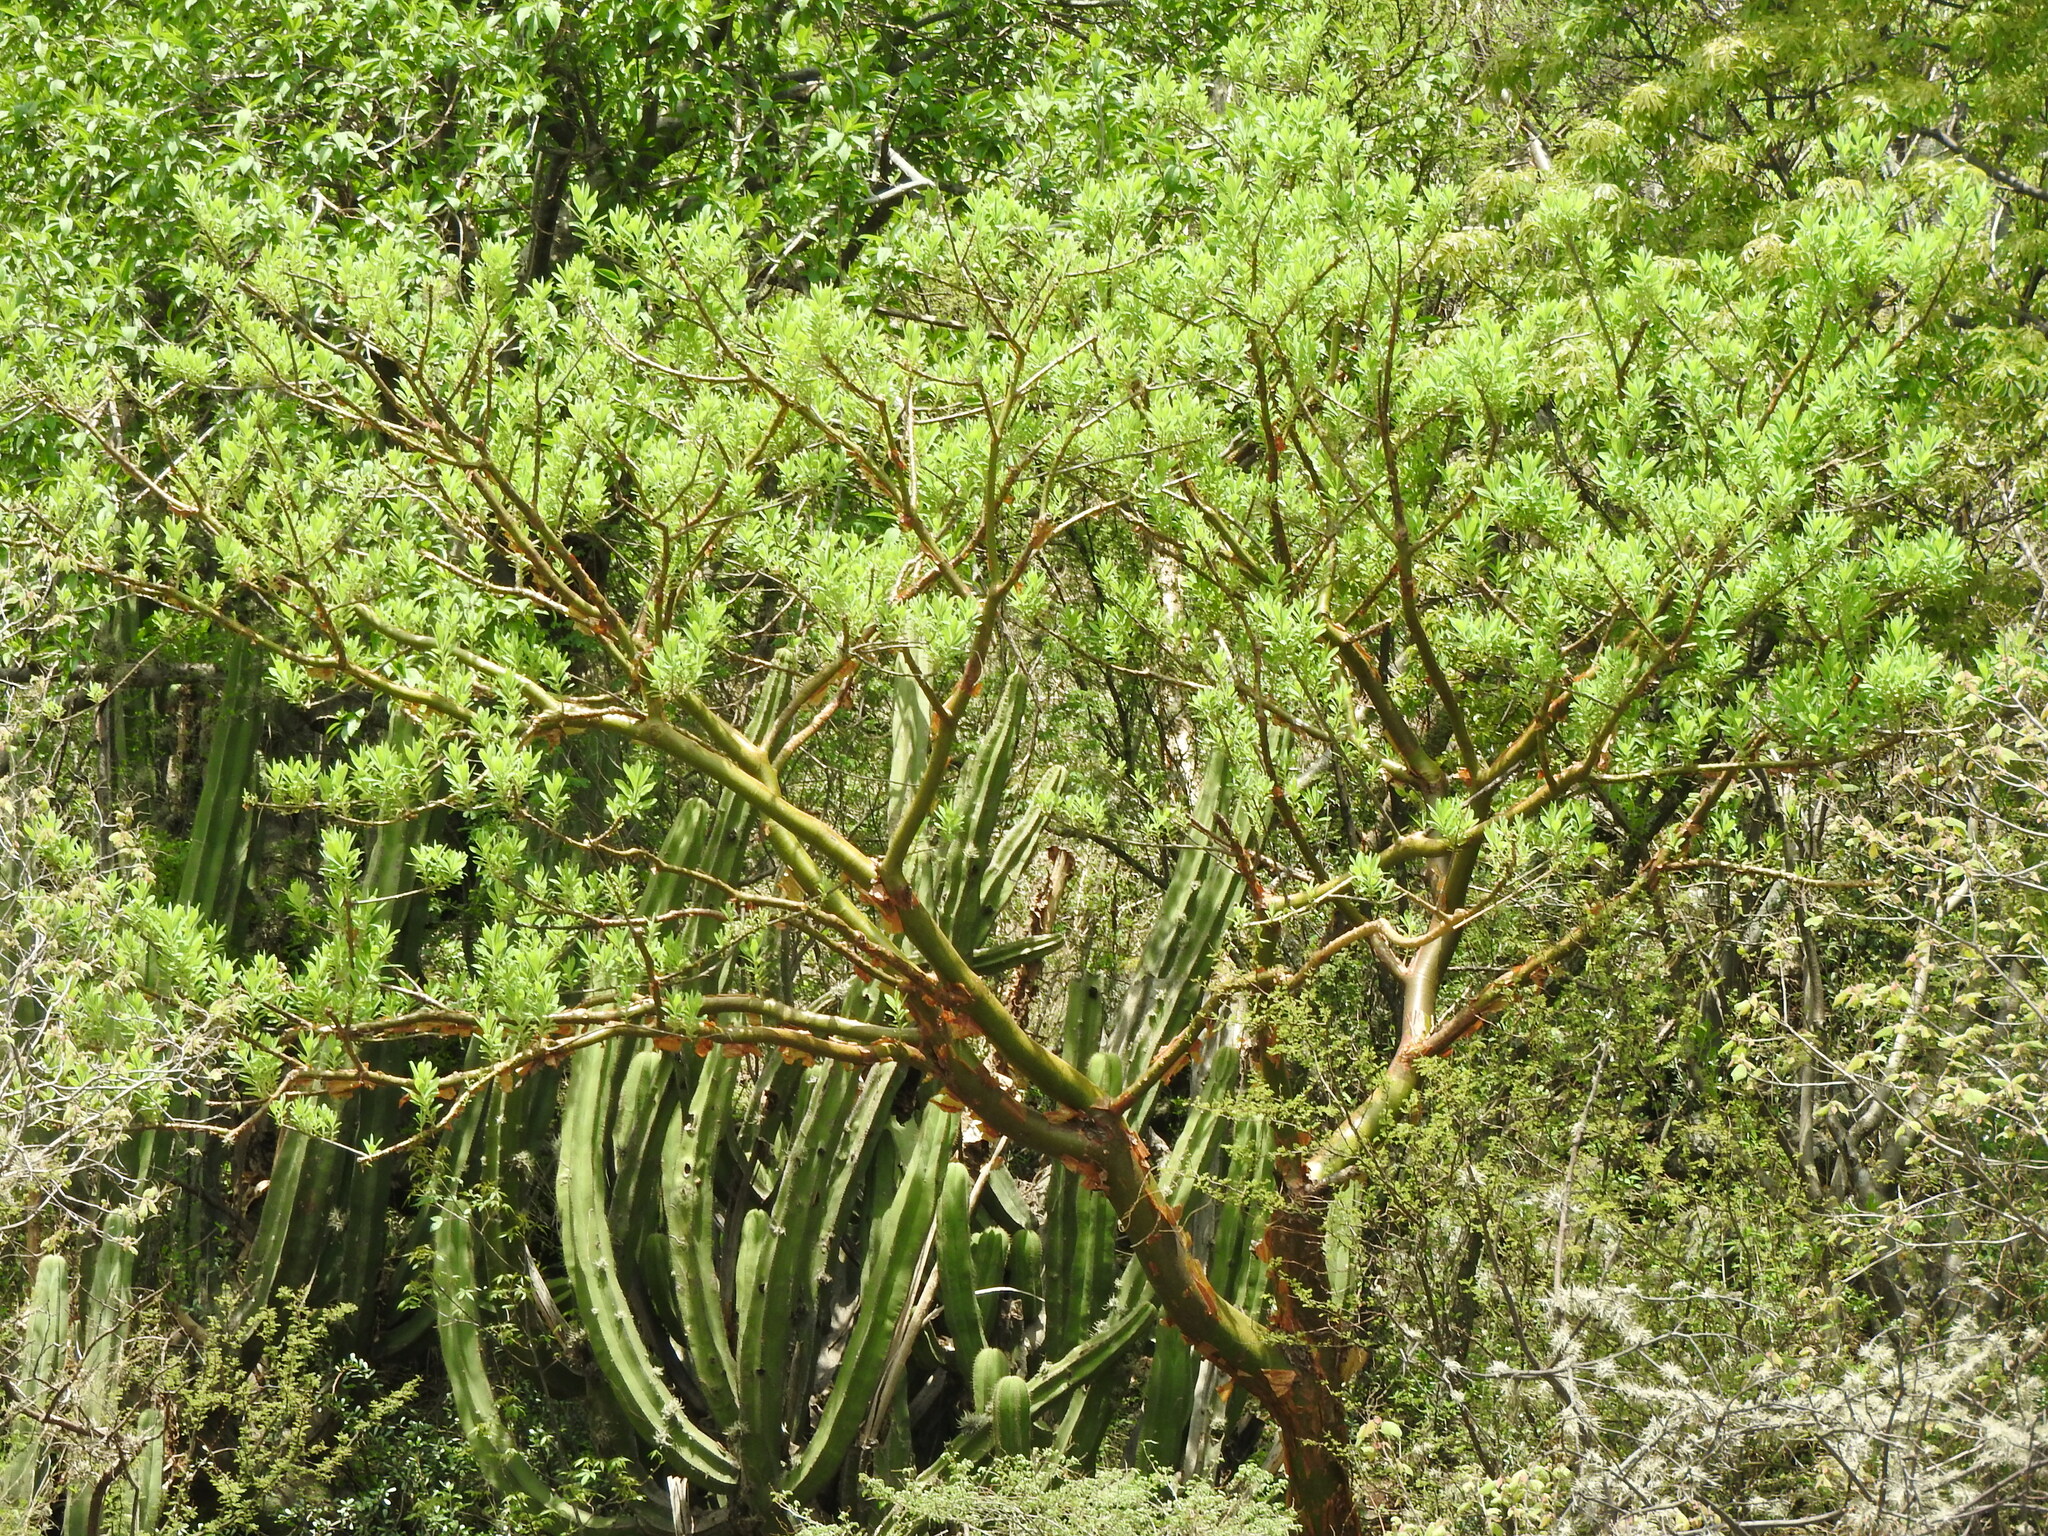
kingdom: Plantae
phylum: Tracheophyta
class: Magnoliopsida
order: Sapindales
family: Burseraceae
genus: Bursera
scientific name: Bursera morelensis
